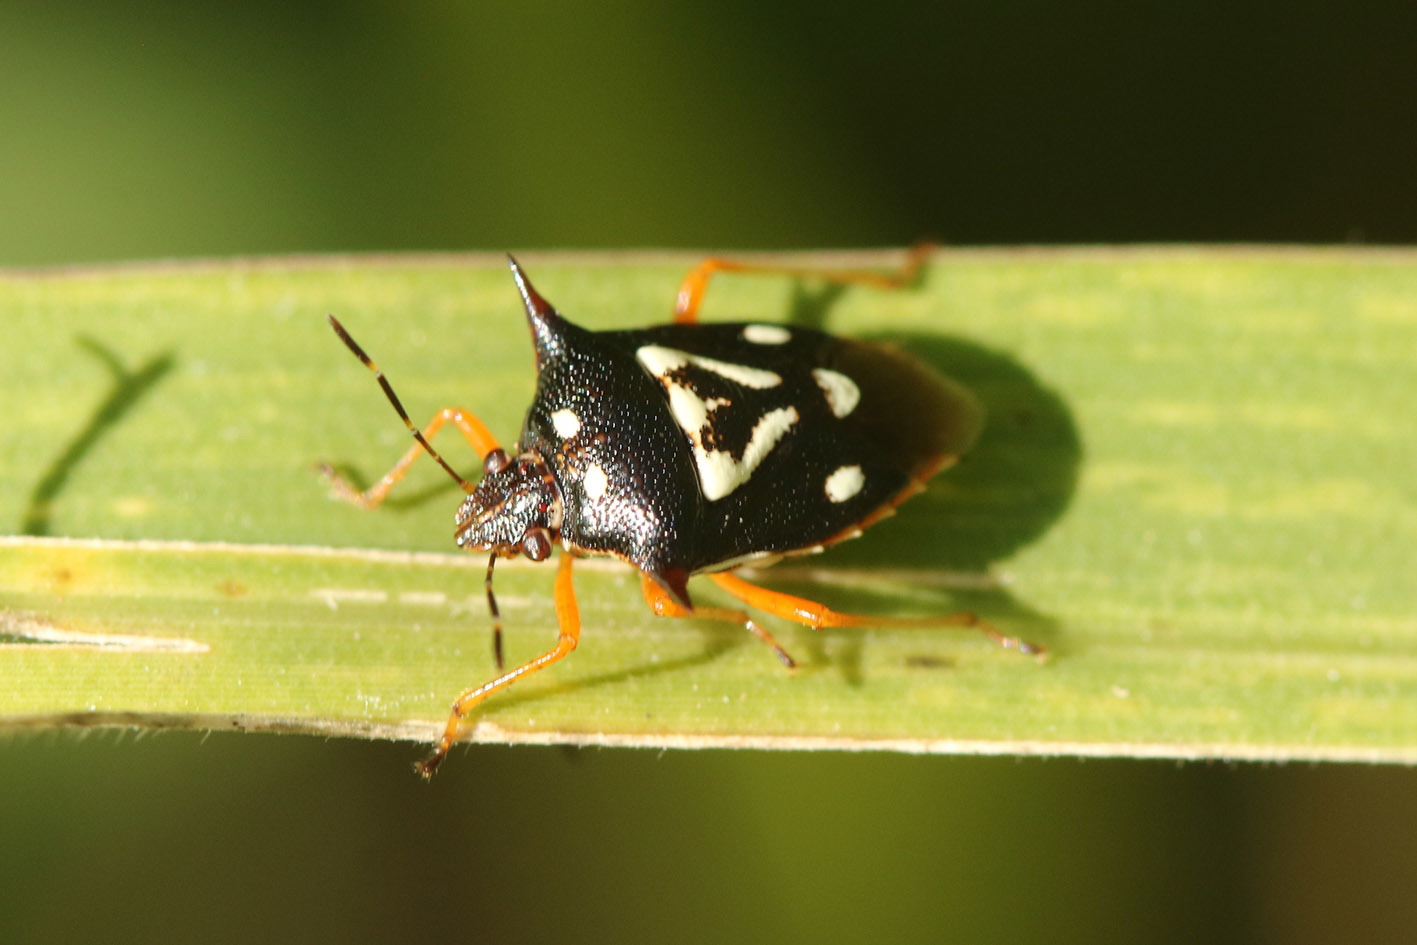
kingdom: Animalia
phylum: Arthropoda
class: Insecta
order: Hemiptera
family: Pentatomidae
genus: Mormidea
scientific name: Mormidea v-luteum
